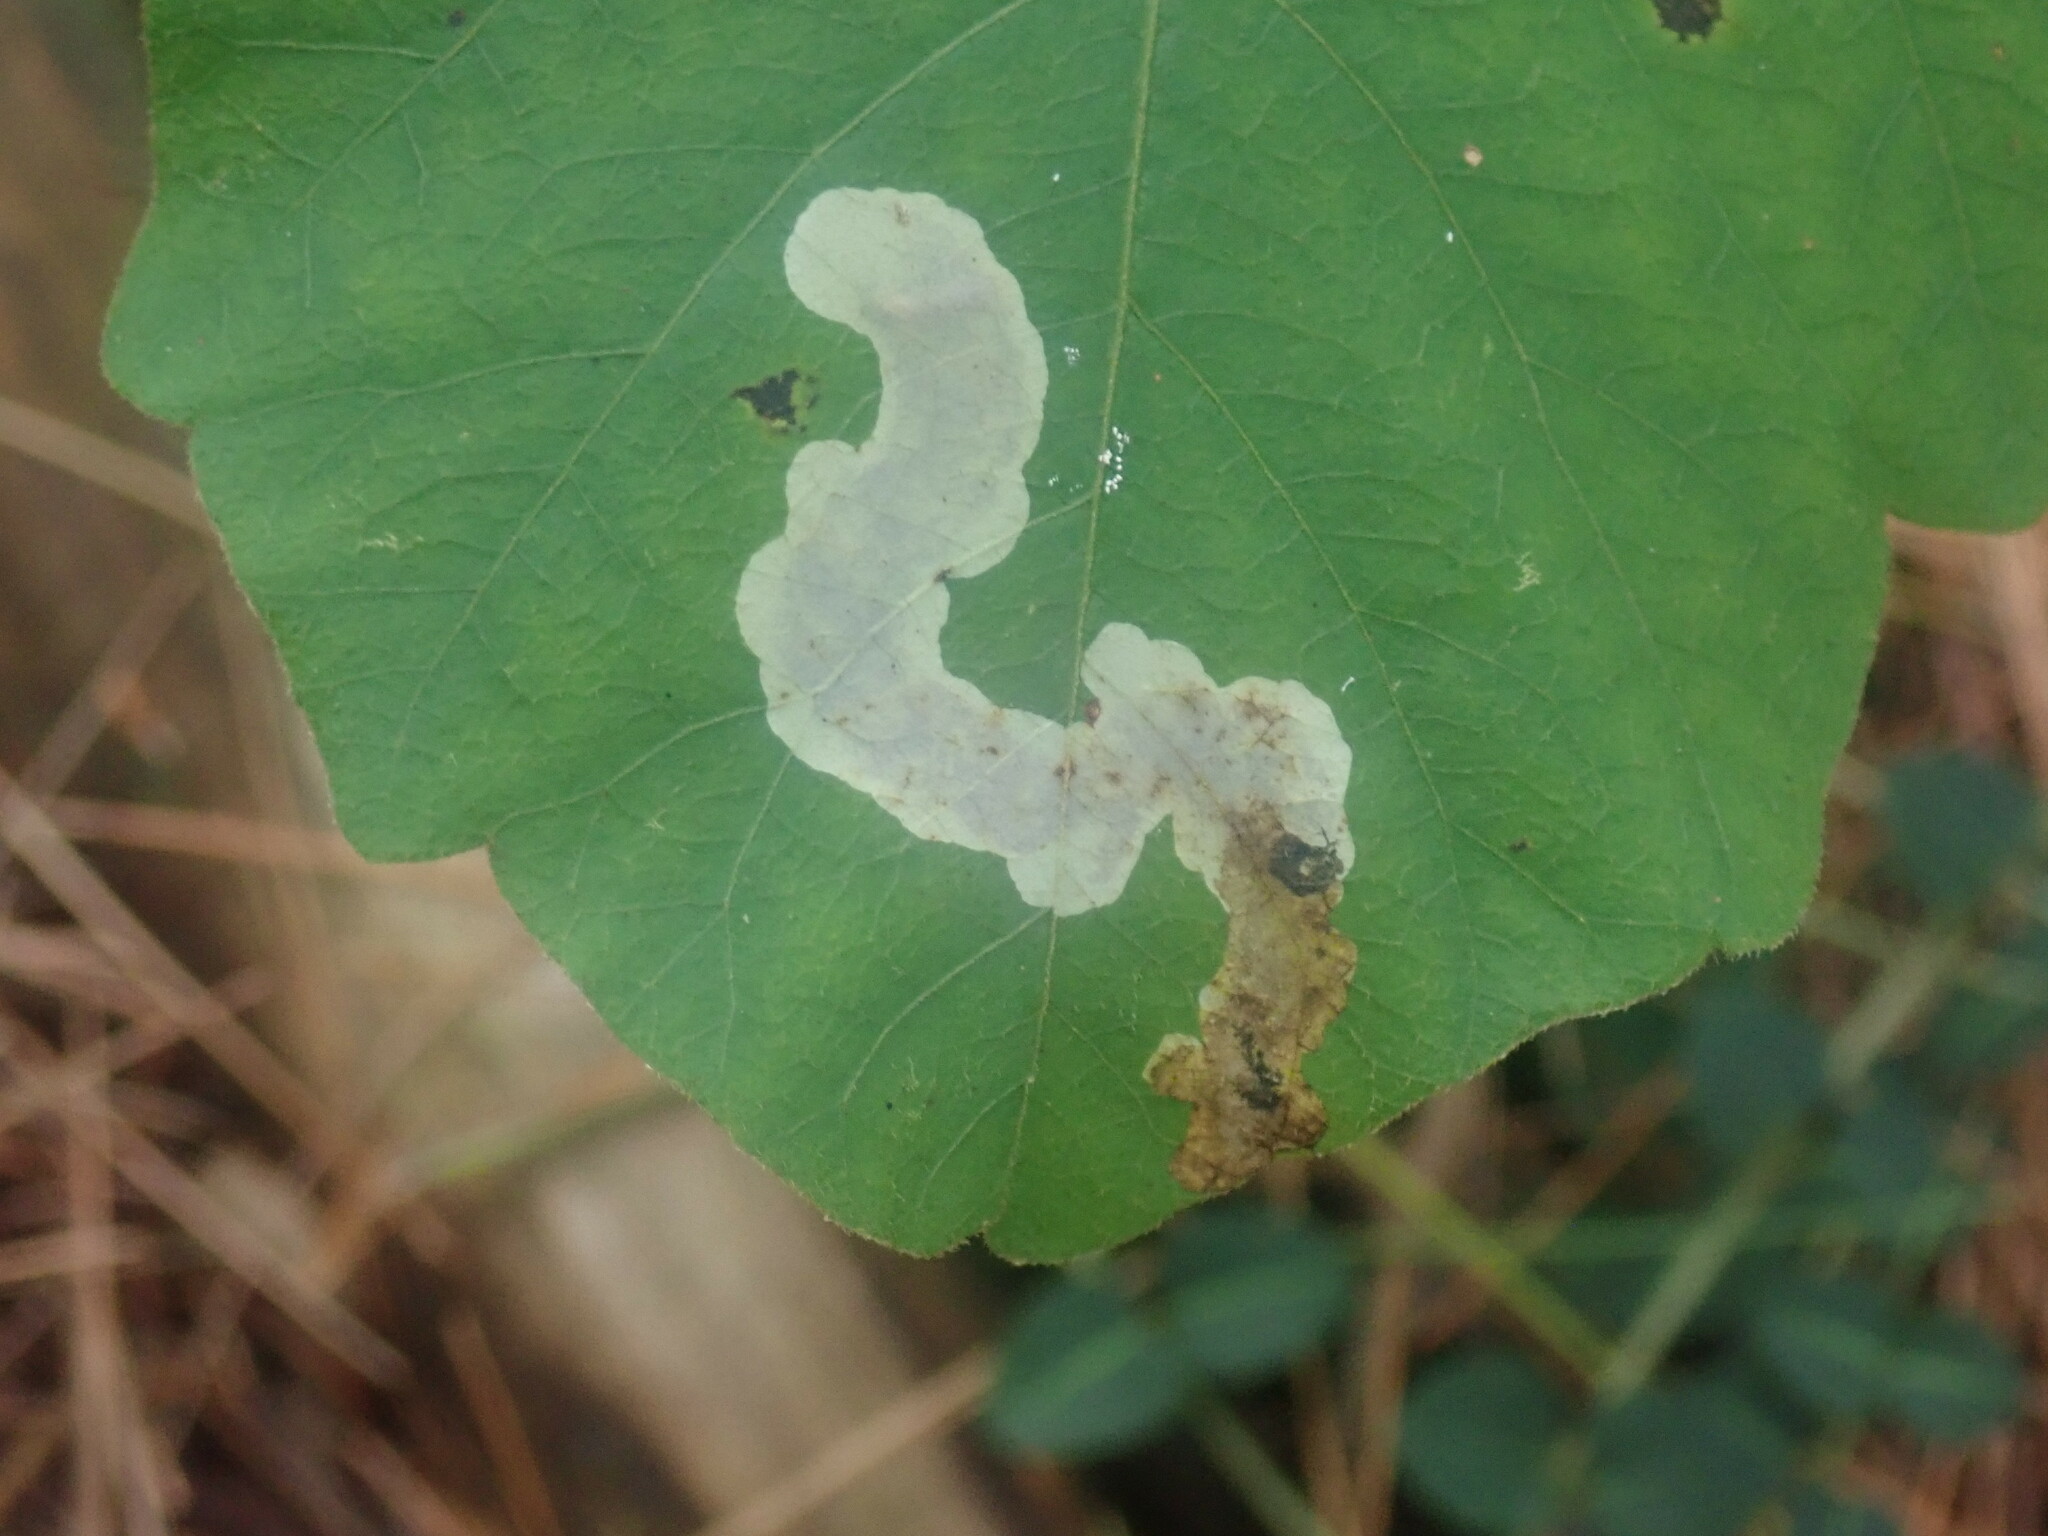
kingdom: Animalia
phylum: Arthropoda
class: Insecta
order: Lepidoptera
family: Gracillariidae
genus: Cameraria
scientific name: Cameraria guttifinitella
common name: Poison ivy leaf-miner moth
